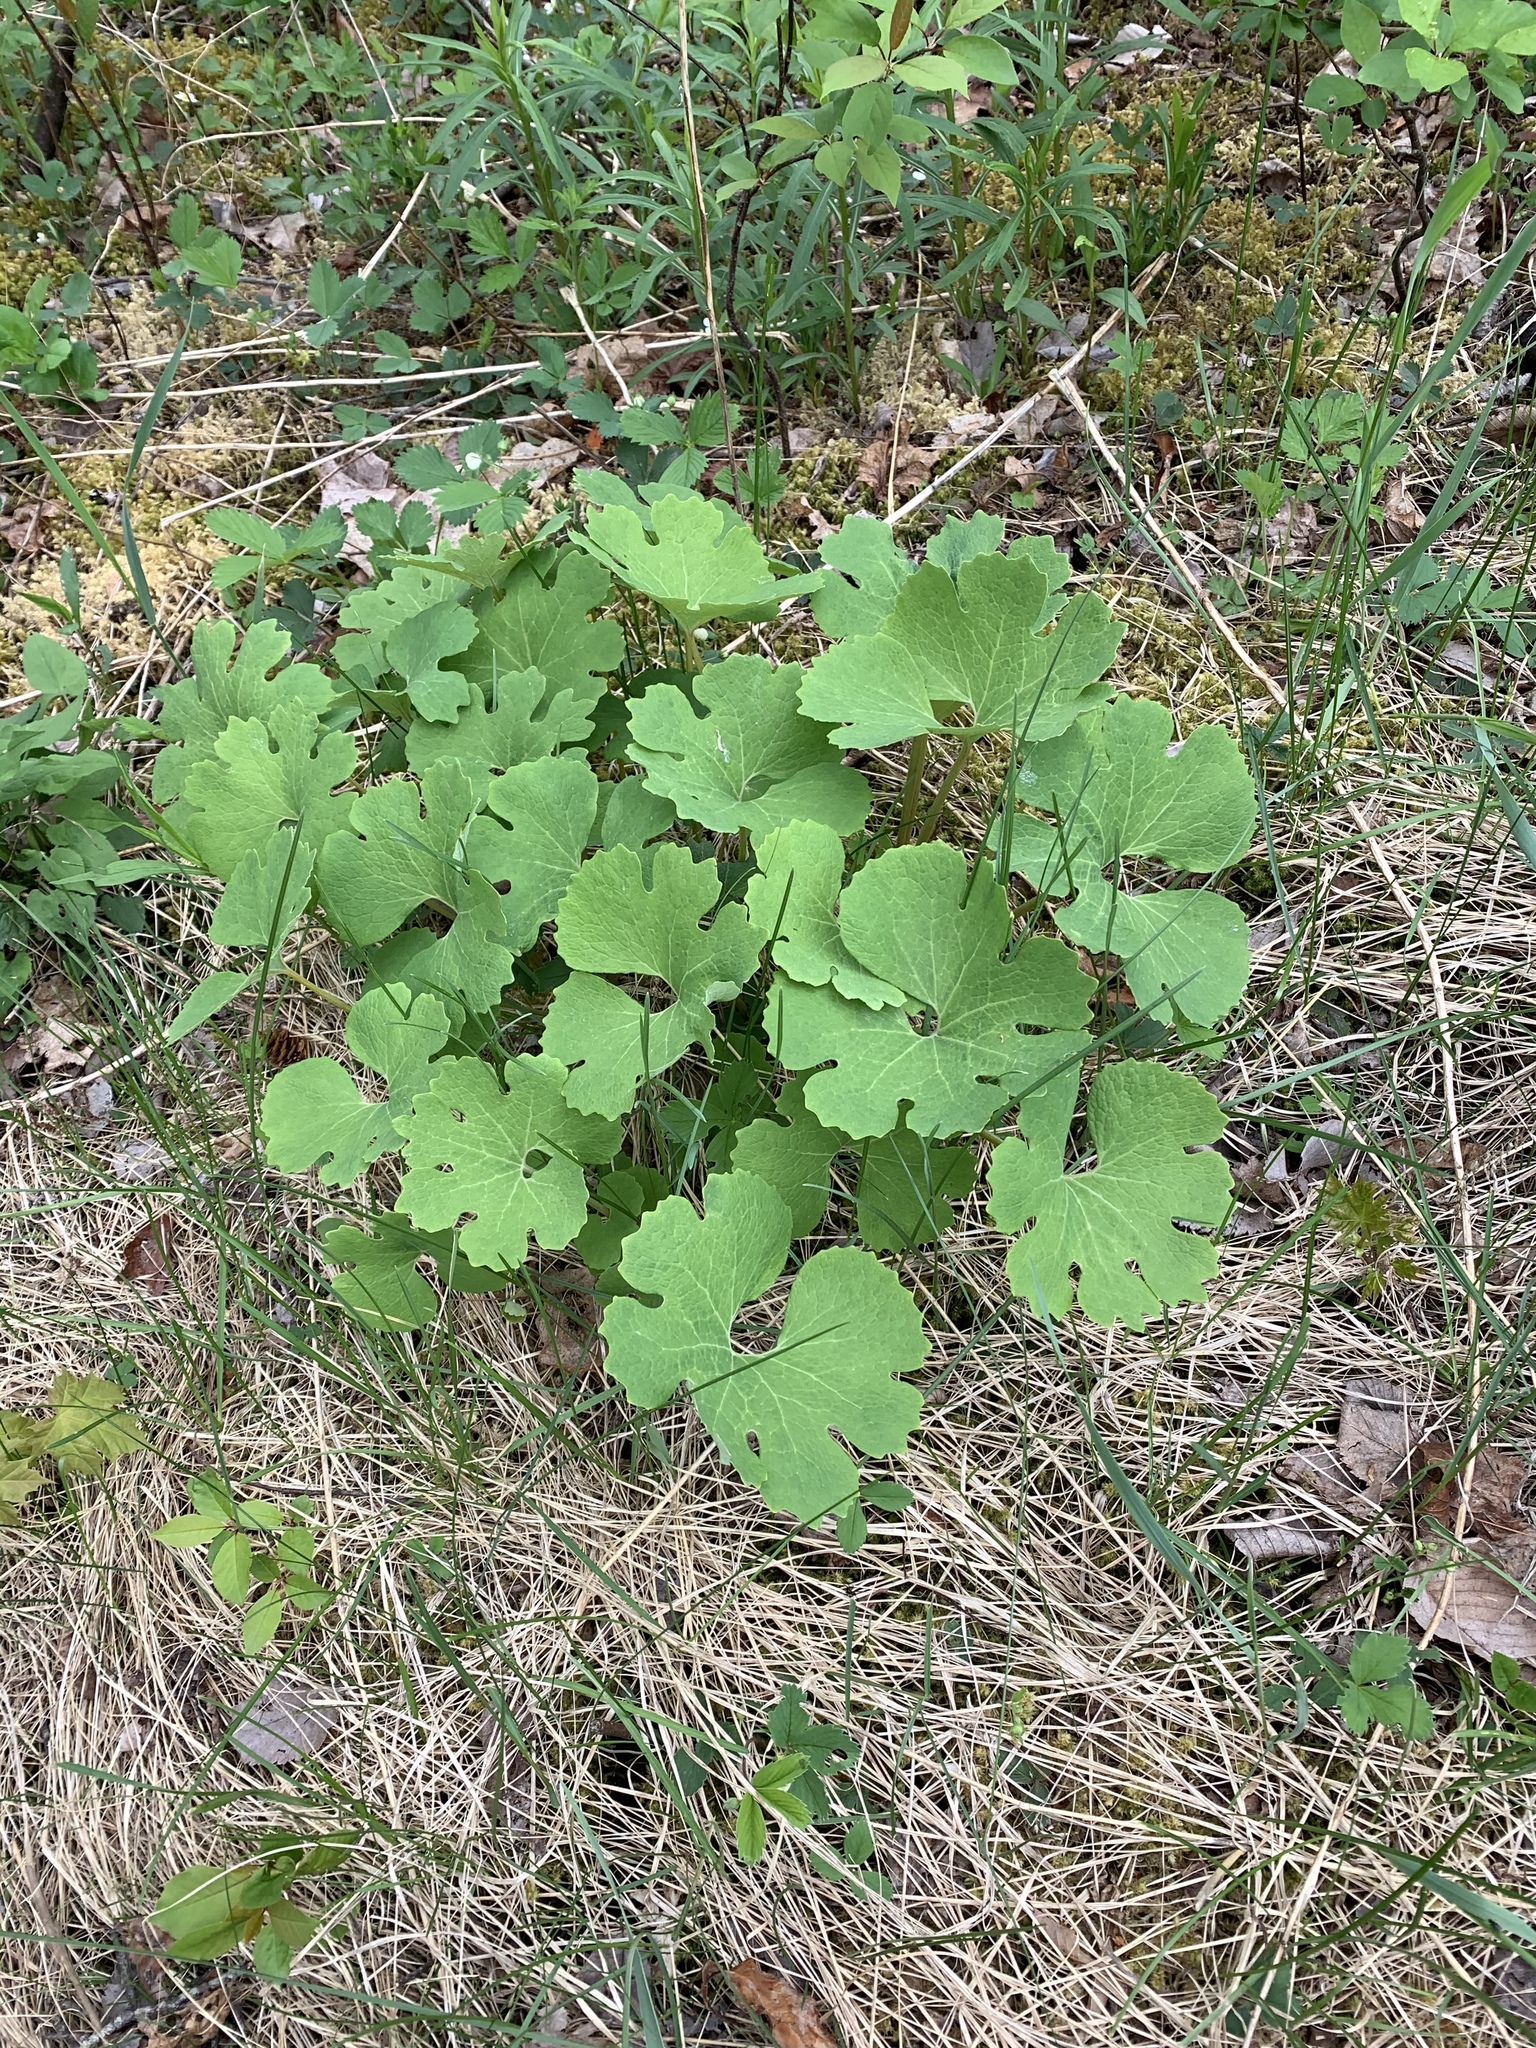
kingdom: Plantae
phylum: Tracheophyta
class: Magnoliopsida
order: Ranunculales
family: Papaveraceae
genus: Sanguinaria
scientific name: Sanguinaria canadensis
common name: Bloodroot
